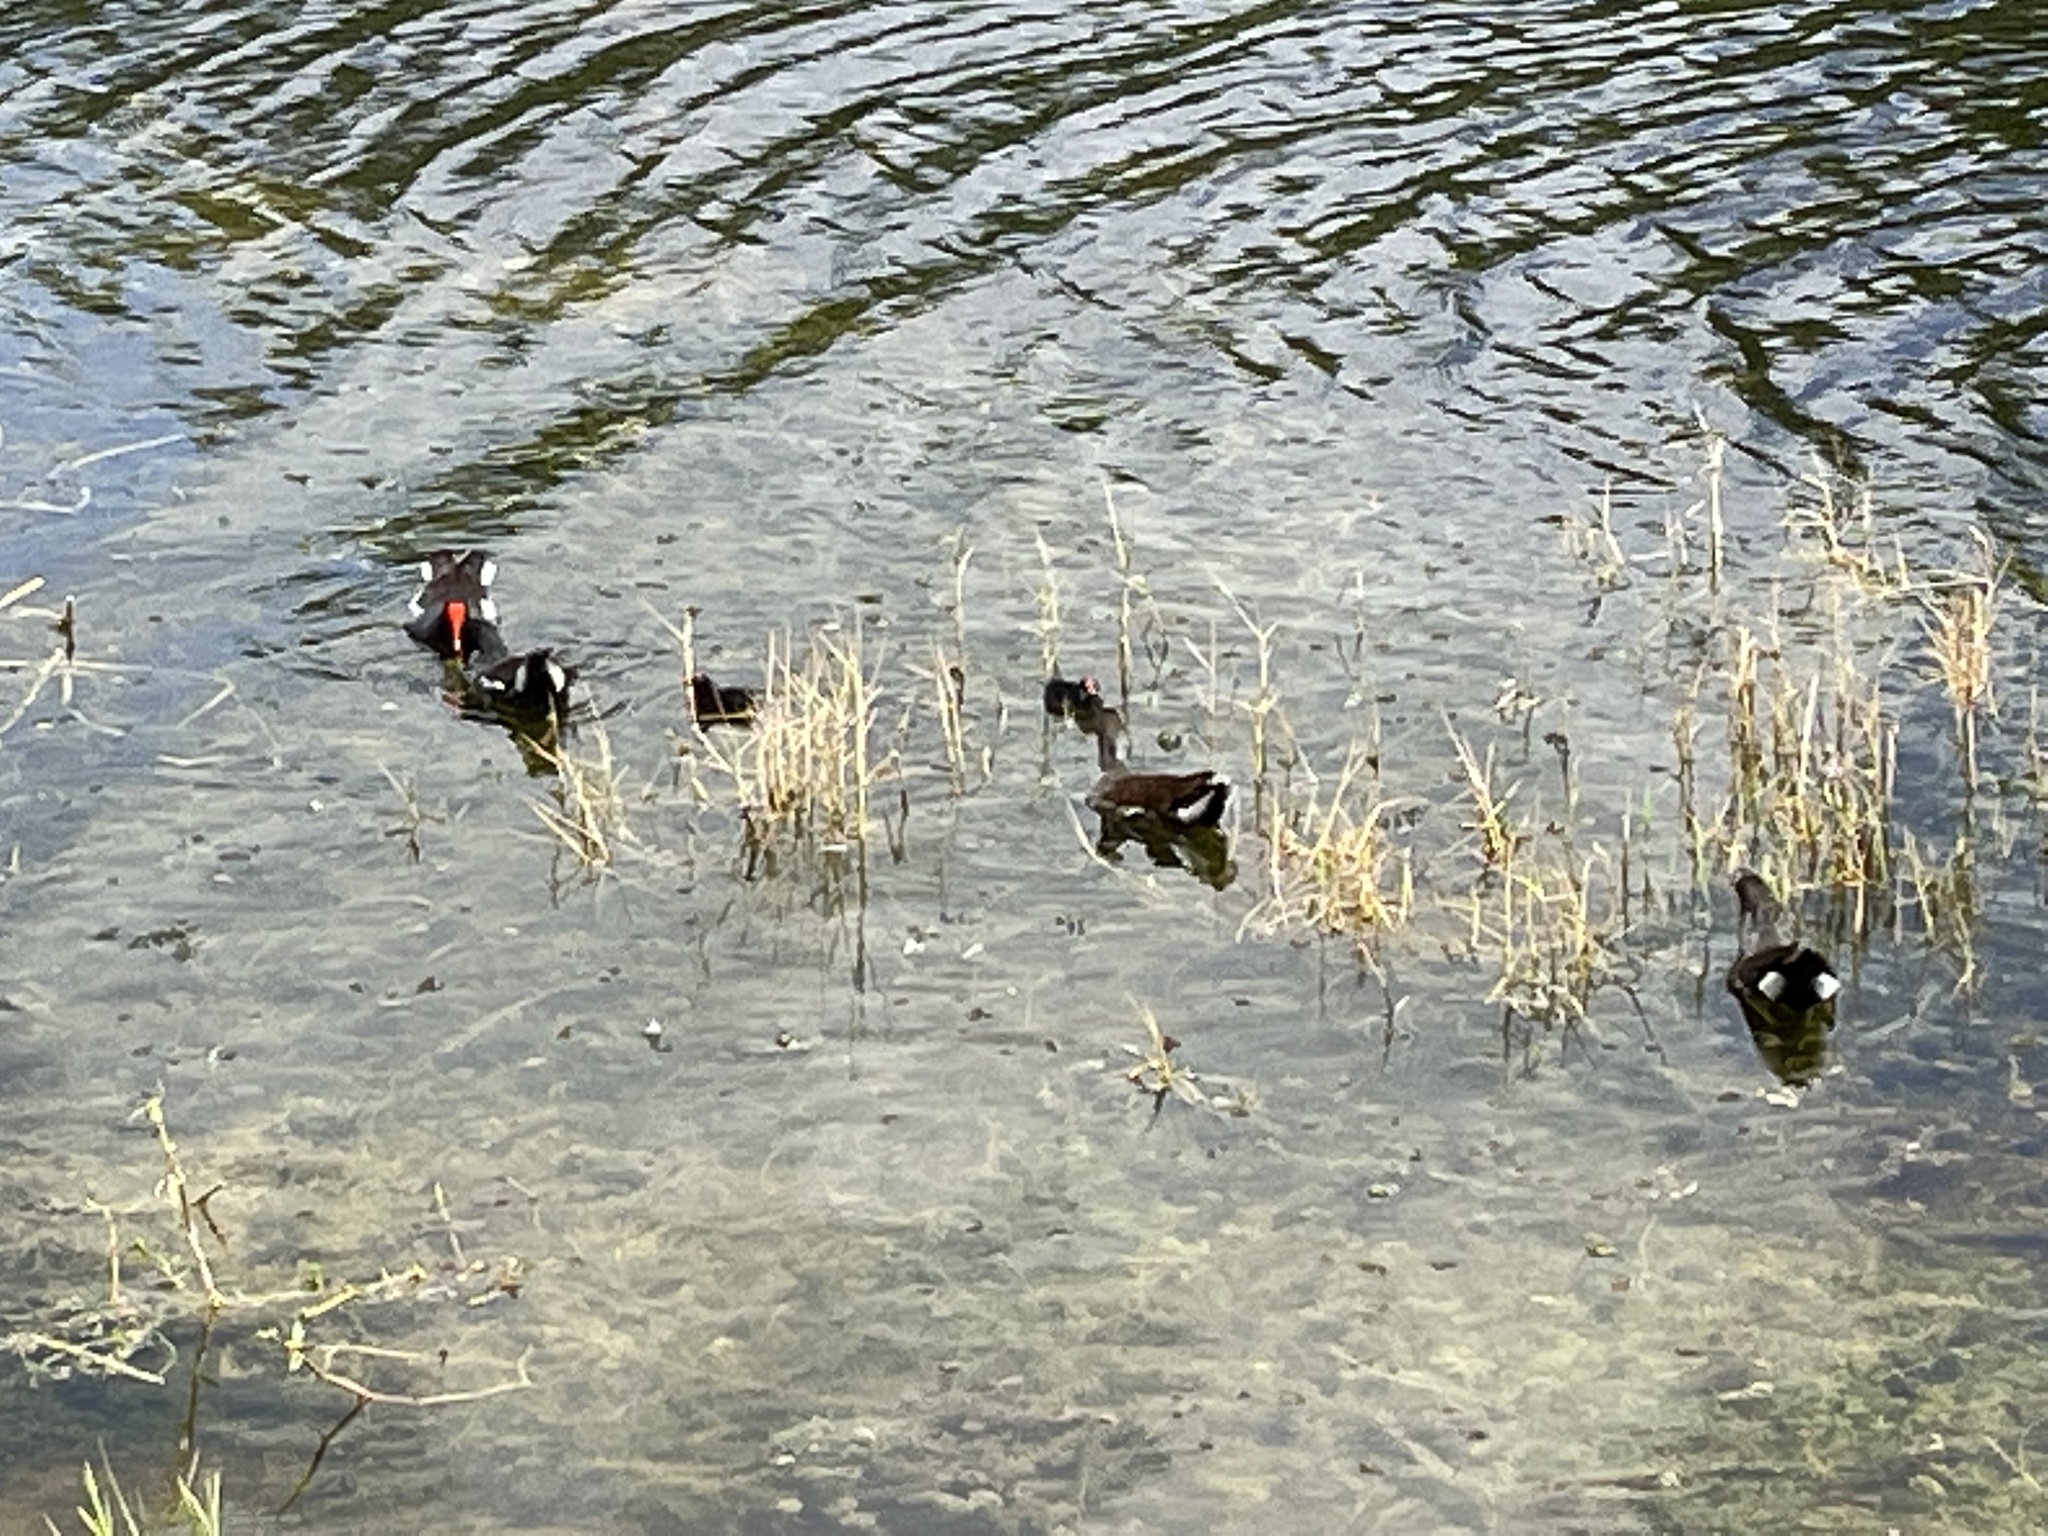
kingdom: Animalia
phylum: Chordata
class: Aves
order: Gruiformes
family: Rallidae
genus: Gallinula
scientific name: Gallinula chloropus
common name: Common moorhen
